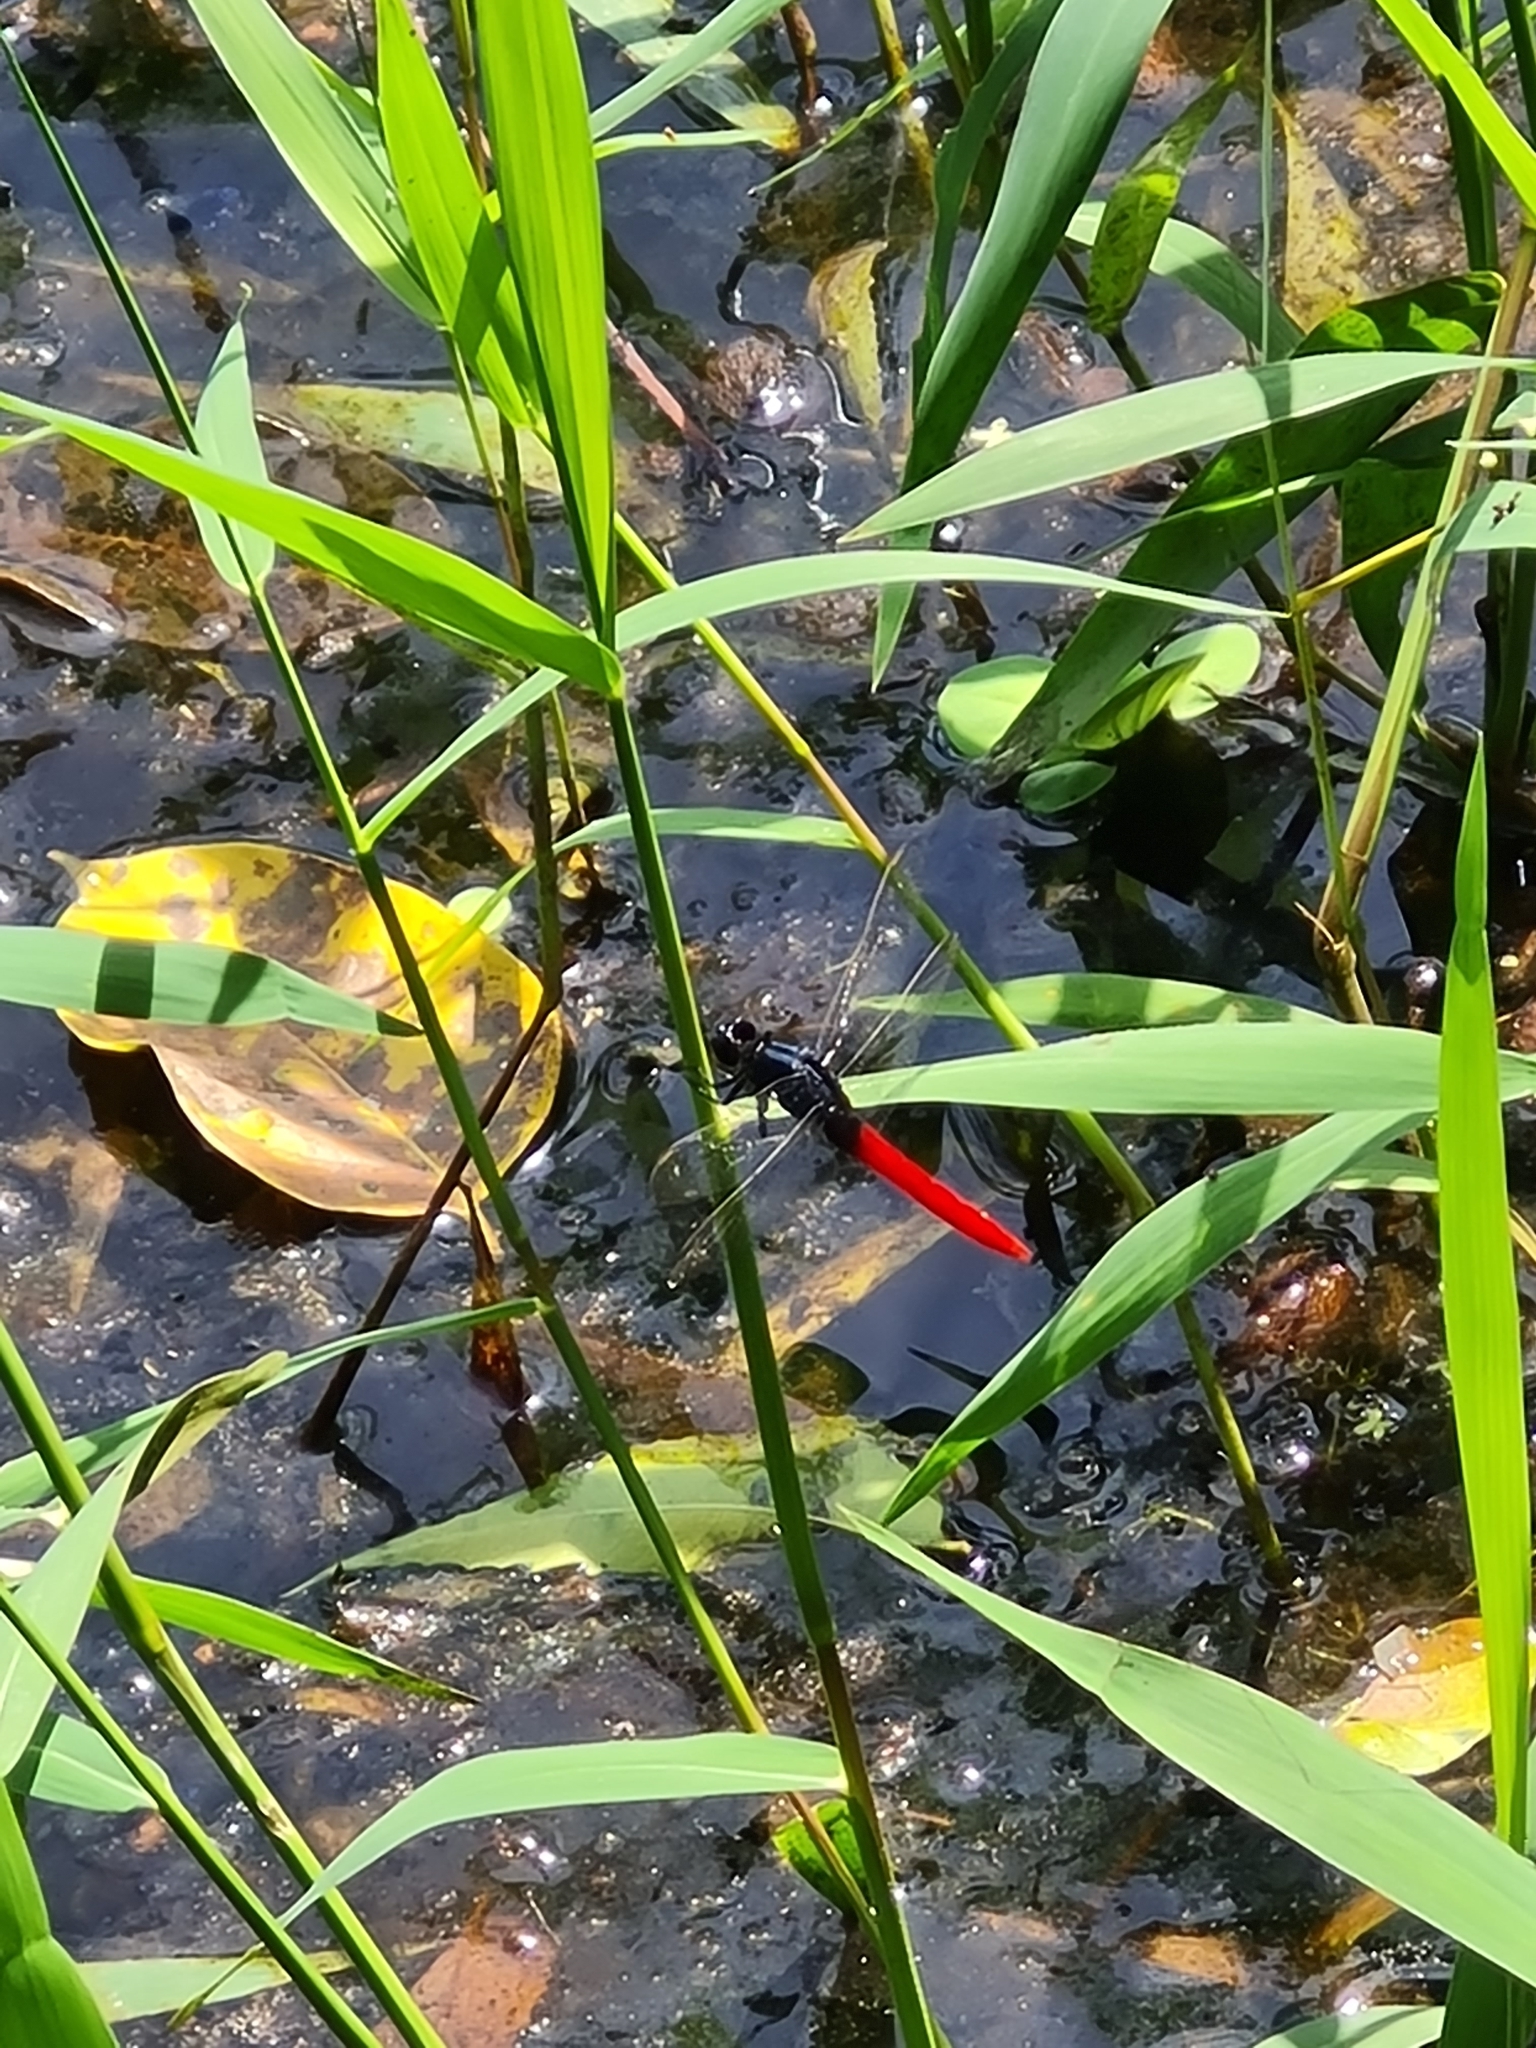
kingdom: Animalia
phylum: Arthropoda
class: Insecta
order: Odonata
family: Libellulidae
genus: Erythemis
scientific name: Erythemis peruviana
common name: Flame-tailed pondhawk
